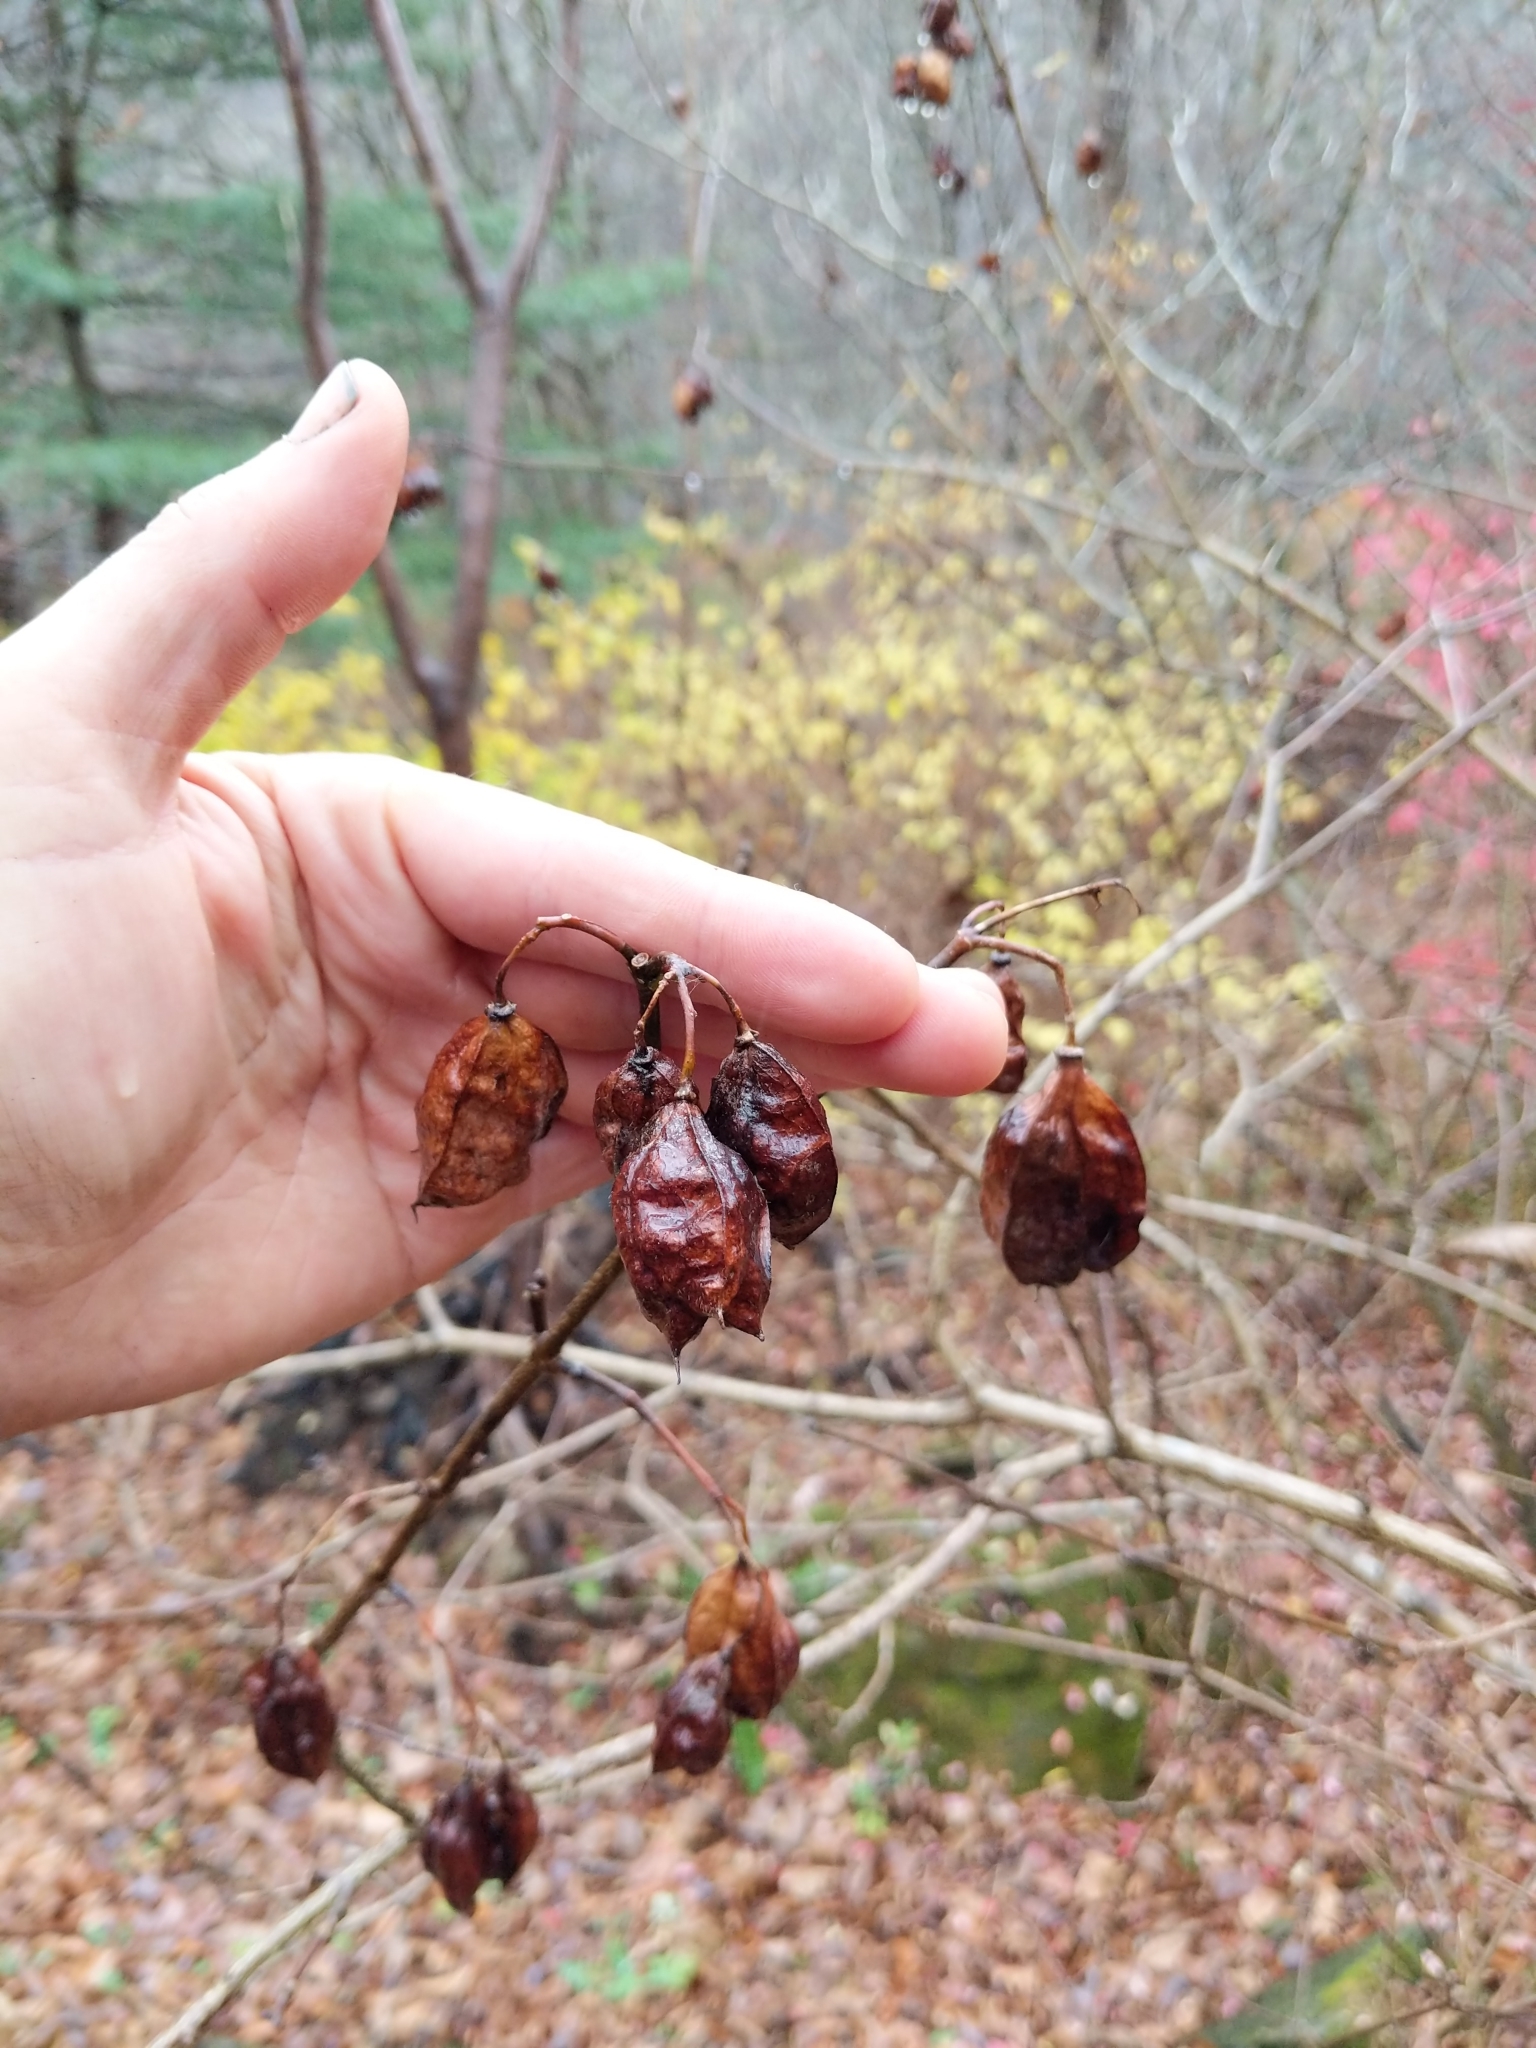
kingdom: Plantae
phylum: Tracheophyta
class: Magnoliopsida
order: Crossosomatales
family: Staphyleaceae
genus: Staphylea
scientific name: Staphylea trifolia
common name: American bladdernut
